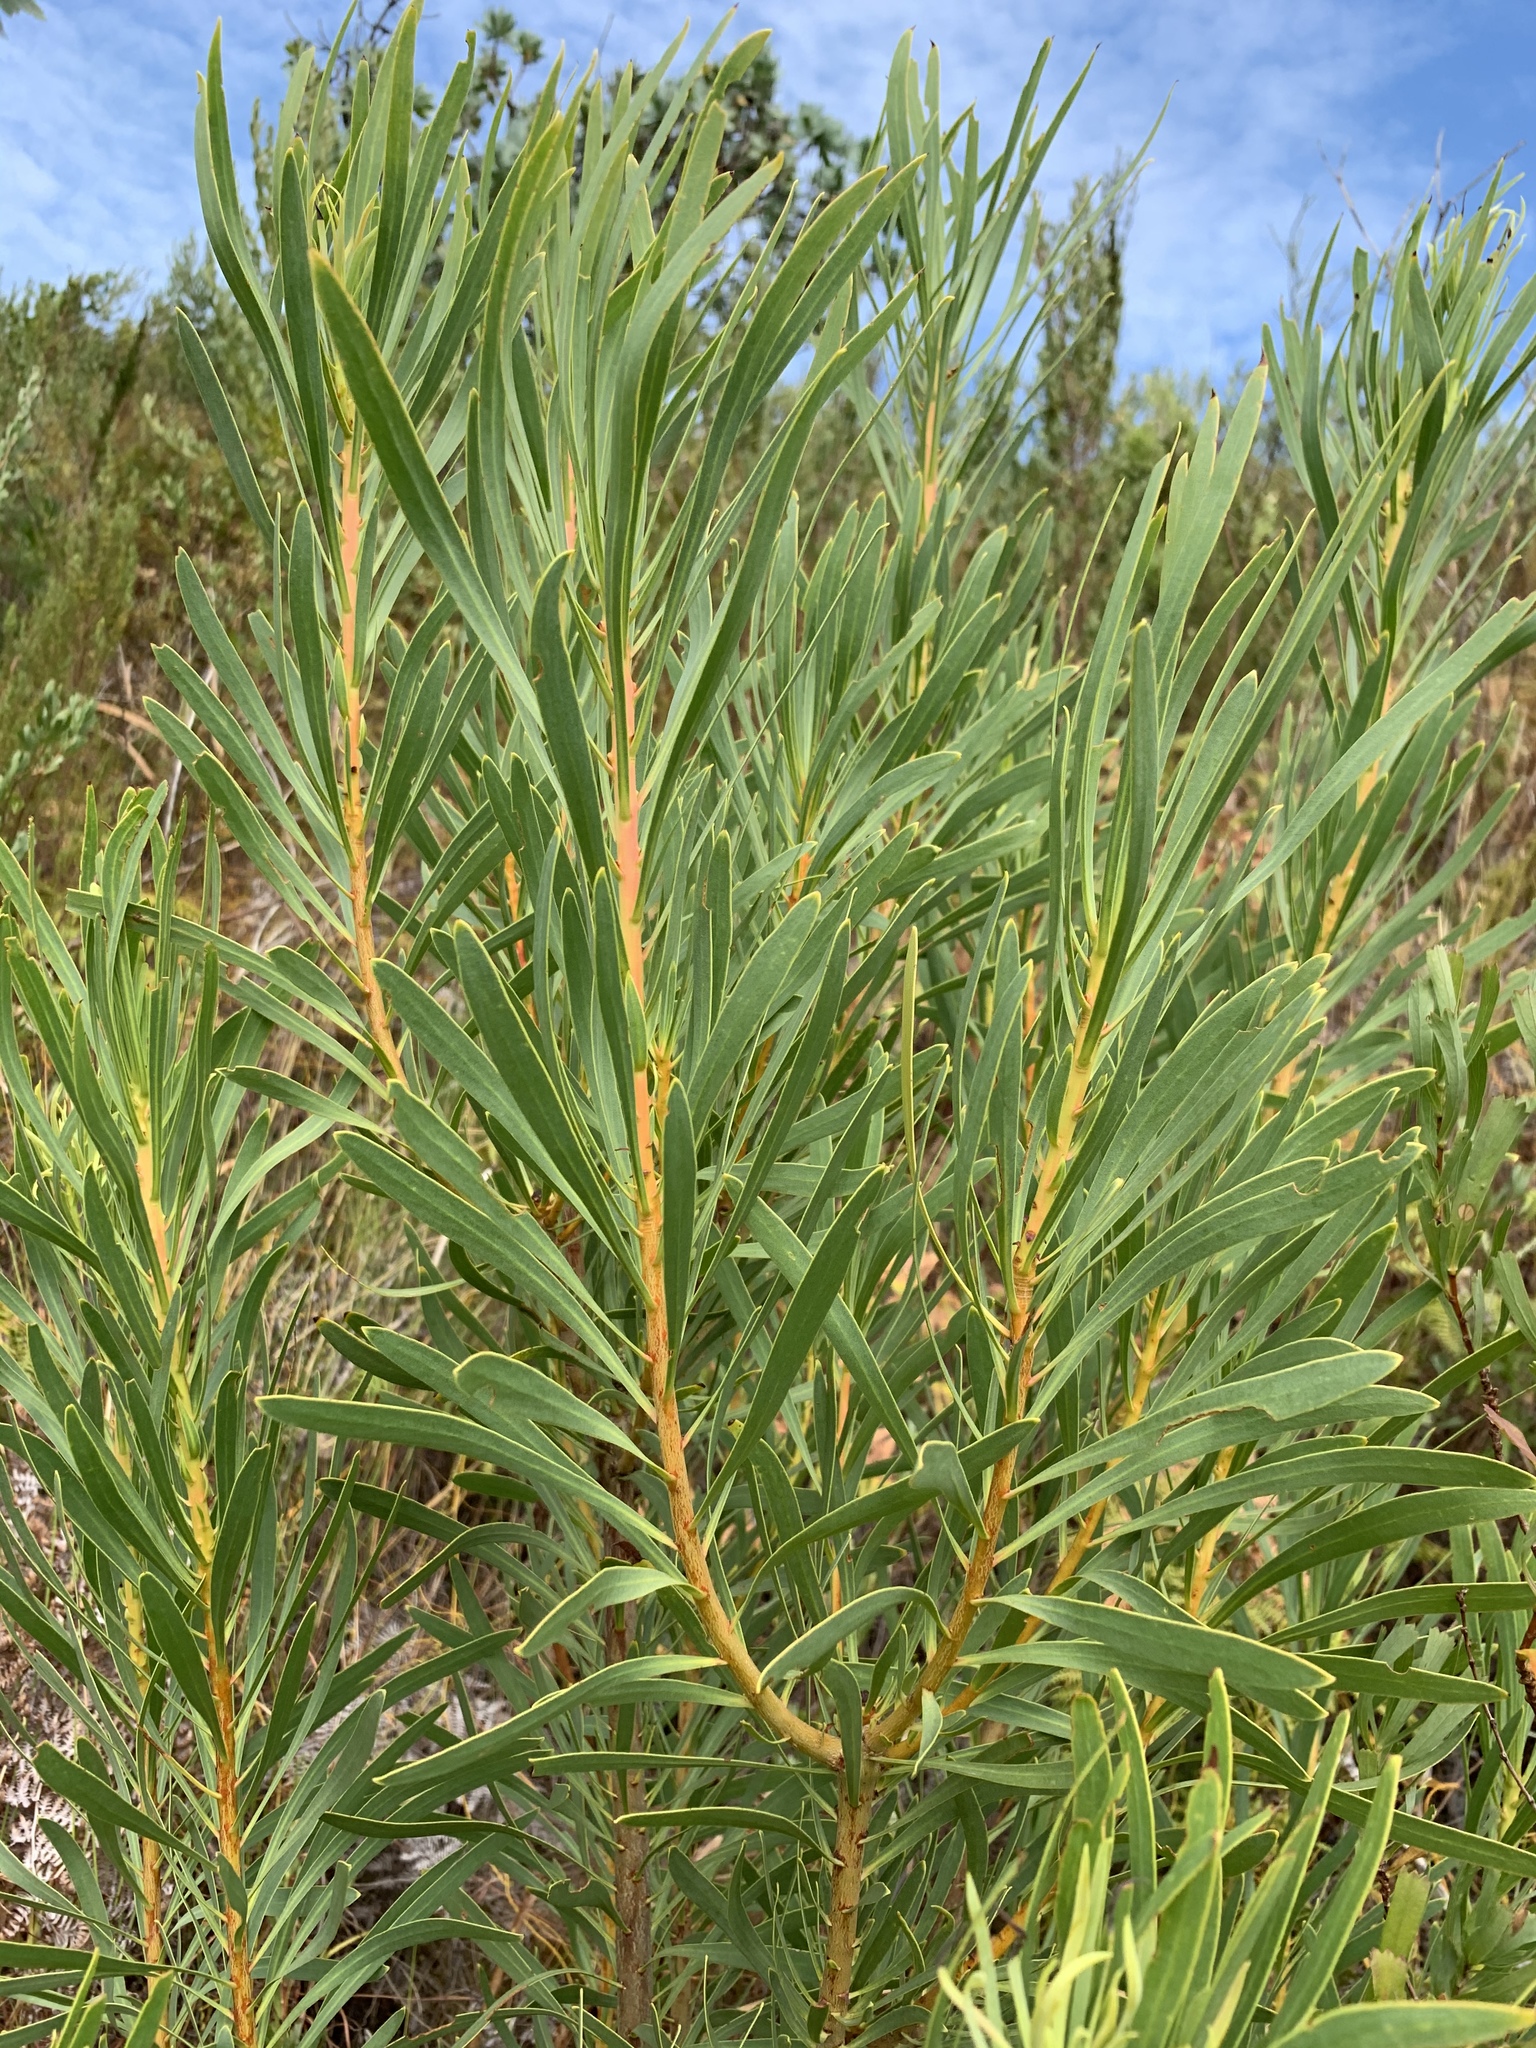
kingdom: Plantae
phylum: Tracheophyta
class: Magnoliopsida
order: Proteales
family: Proteaceae
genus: Protea
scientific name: Protea repens
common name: Sugarbush
